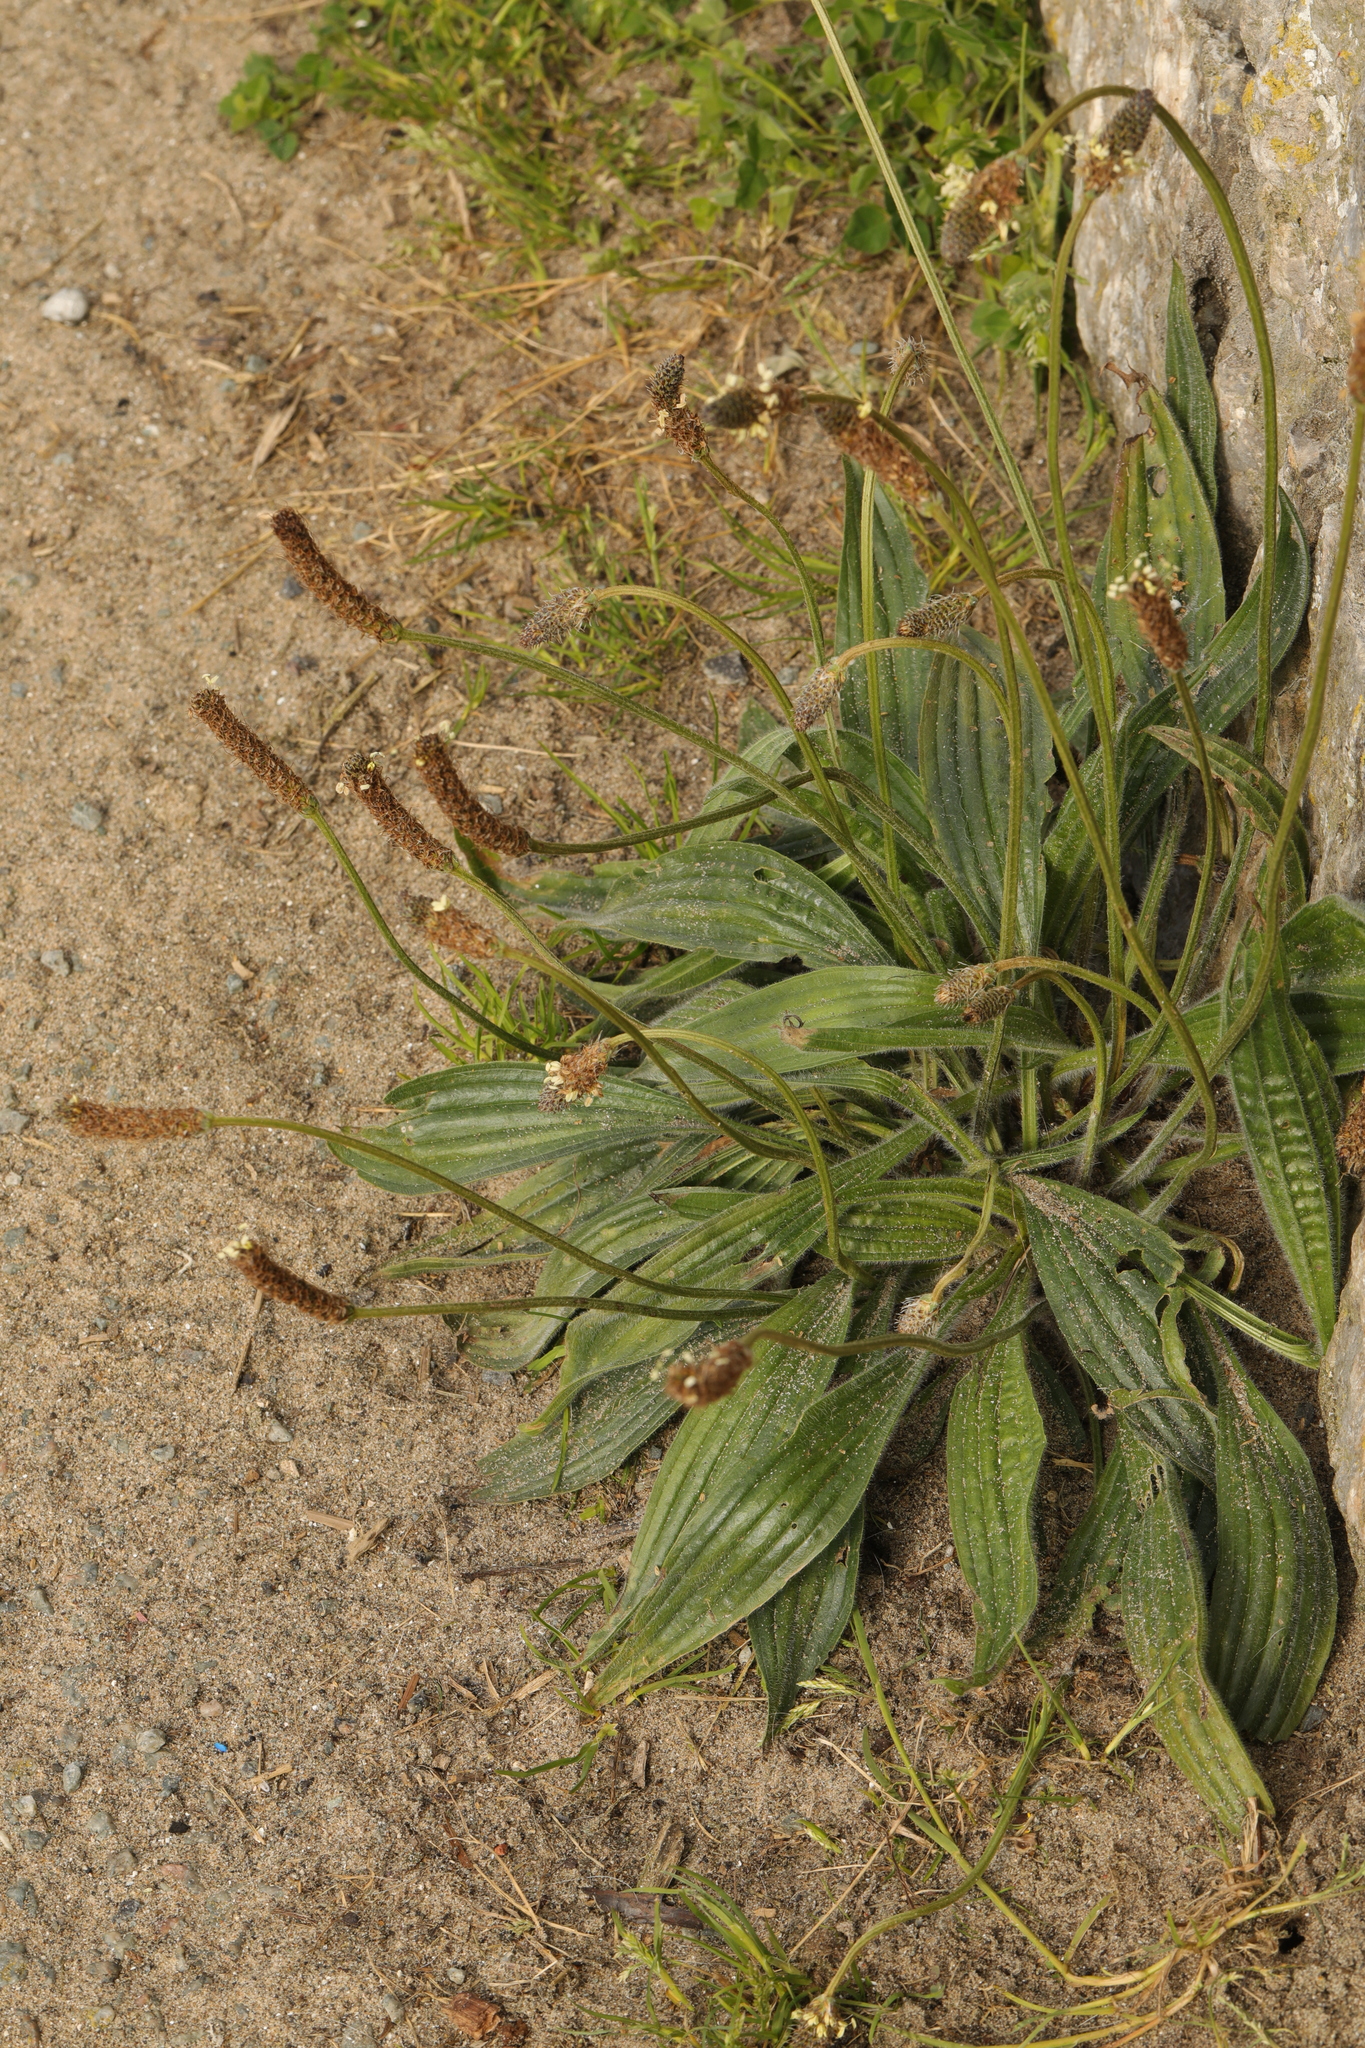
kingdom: Plantae
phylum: Tracheophyta
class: Magnoliopsida
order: Lamiales
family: Plantaginaceae
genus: Plantago
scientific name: Plantago lanceolata
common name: Ribwort plantain
